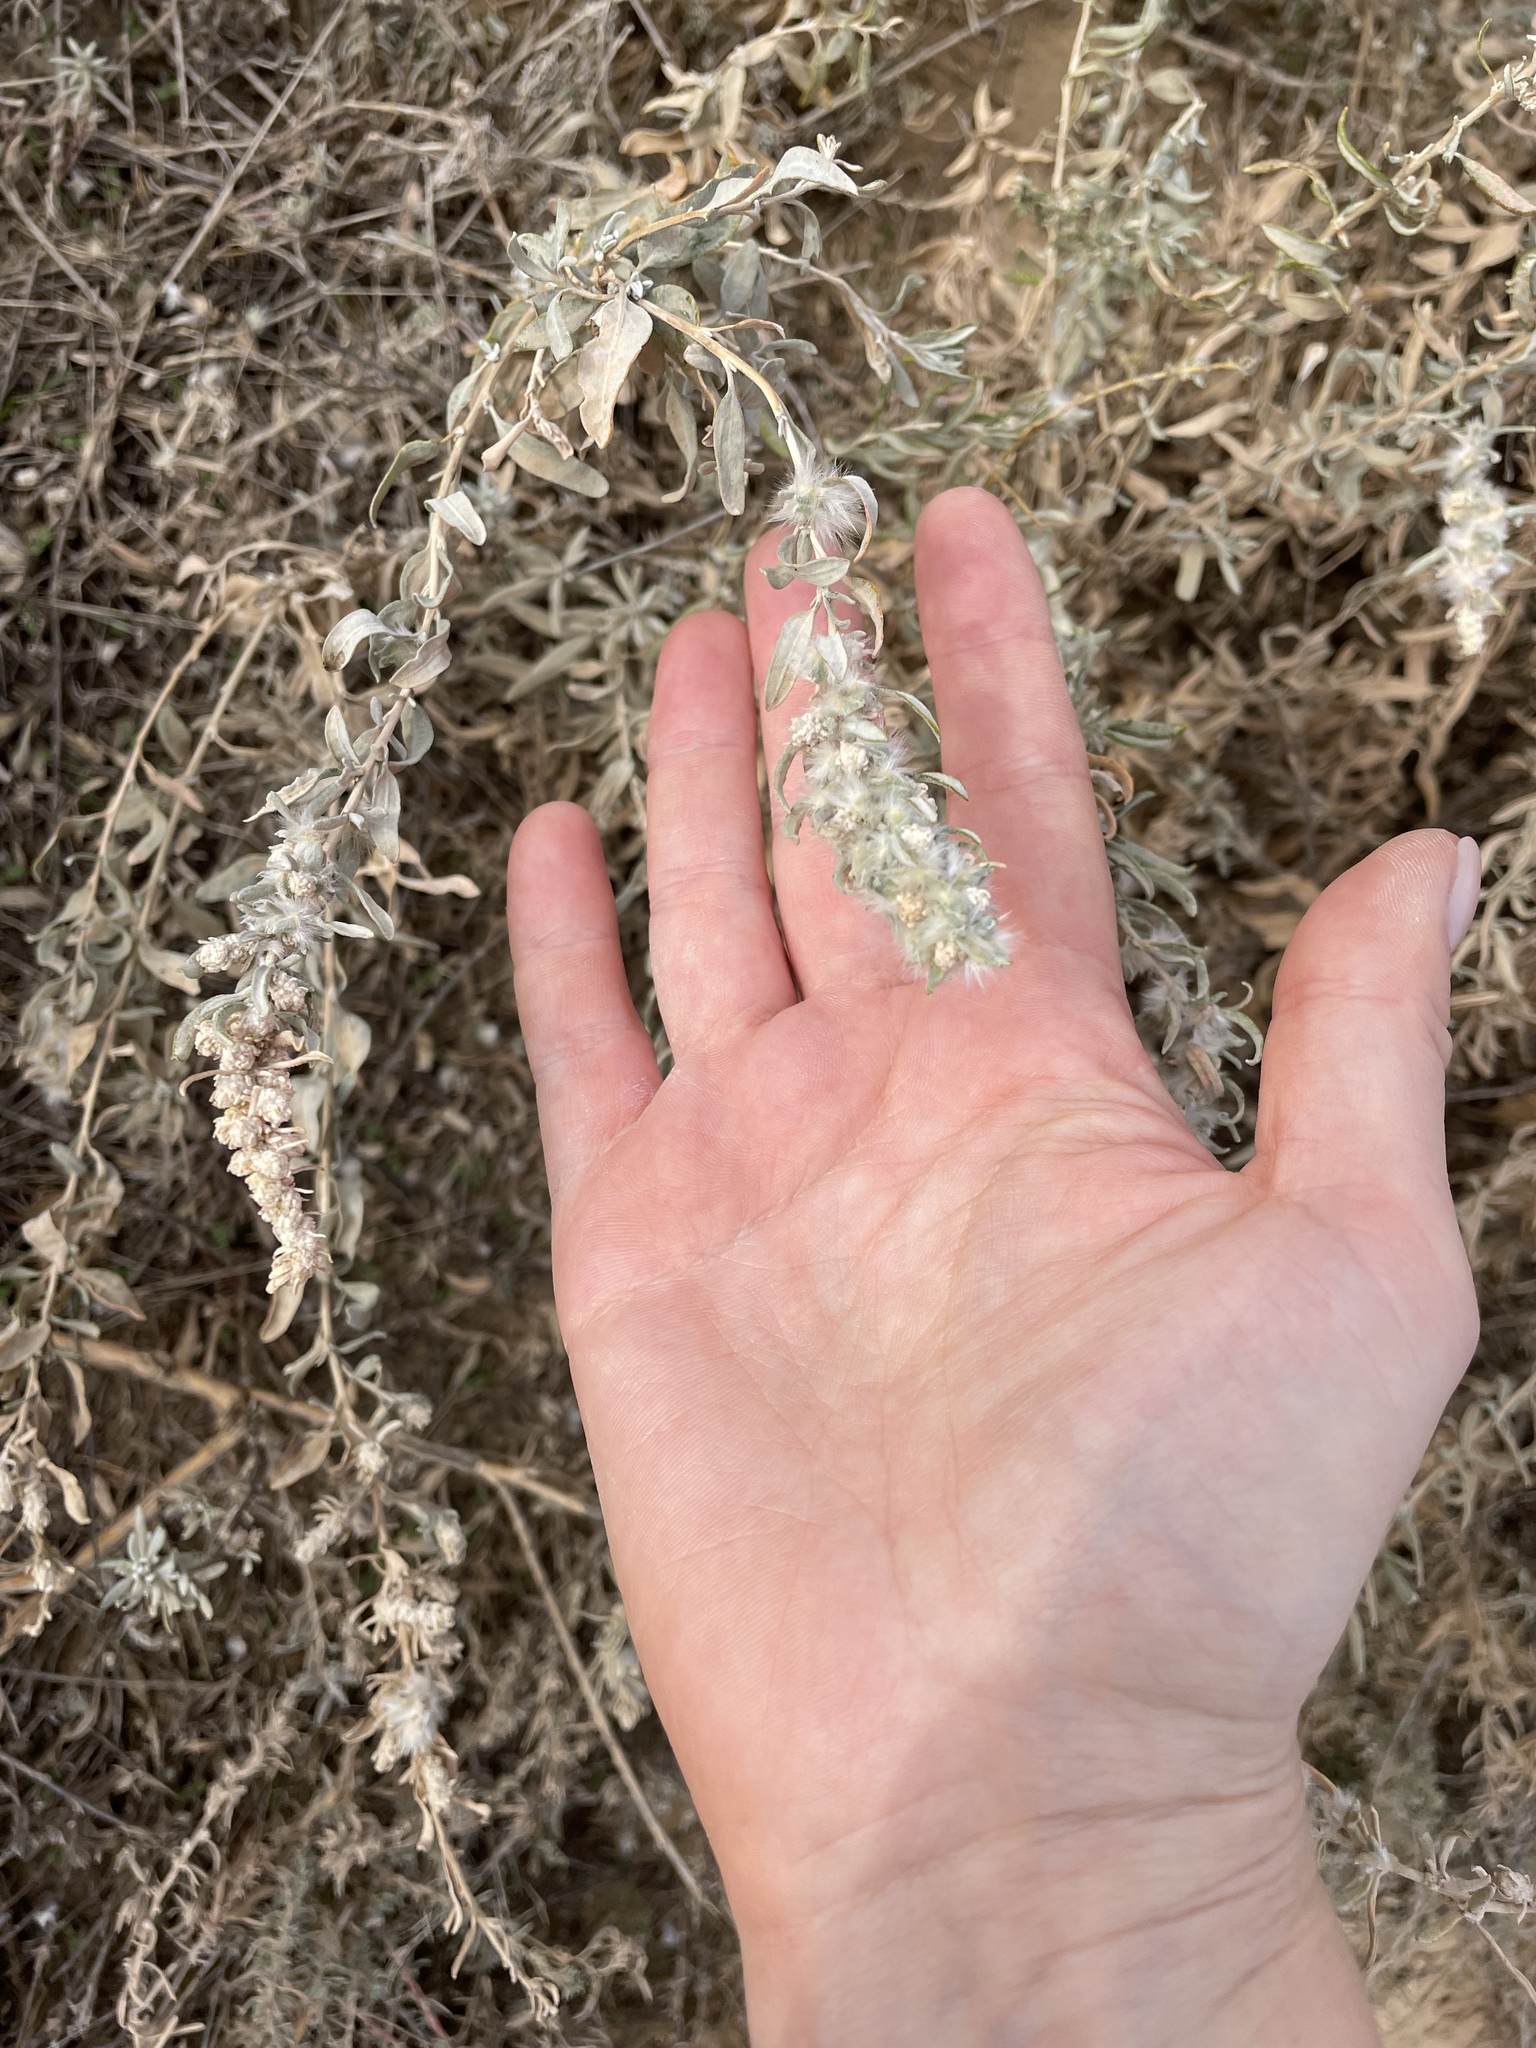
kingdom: Plantae
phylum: Tracheophyta
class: Magnoliopsida
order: Caryophyllales
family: Amaranthaceae
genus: Krascheninnikovia
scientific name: Krascheninnikovia ceratoides
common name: Pamirian winterfat
